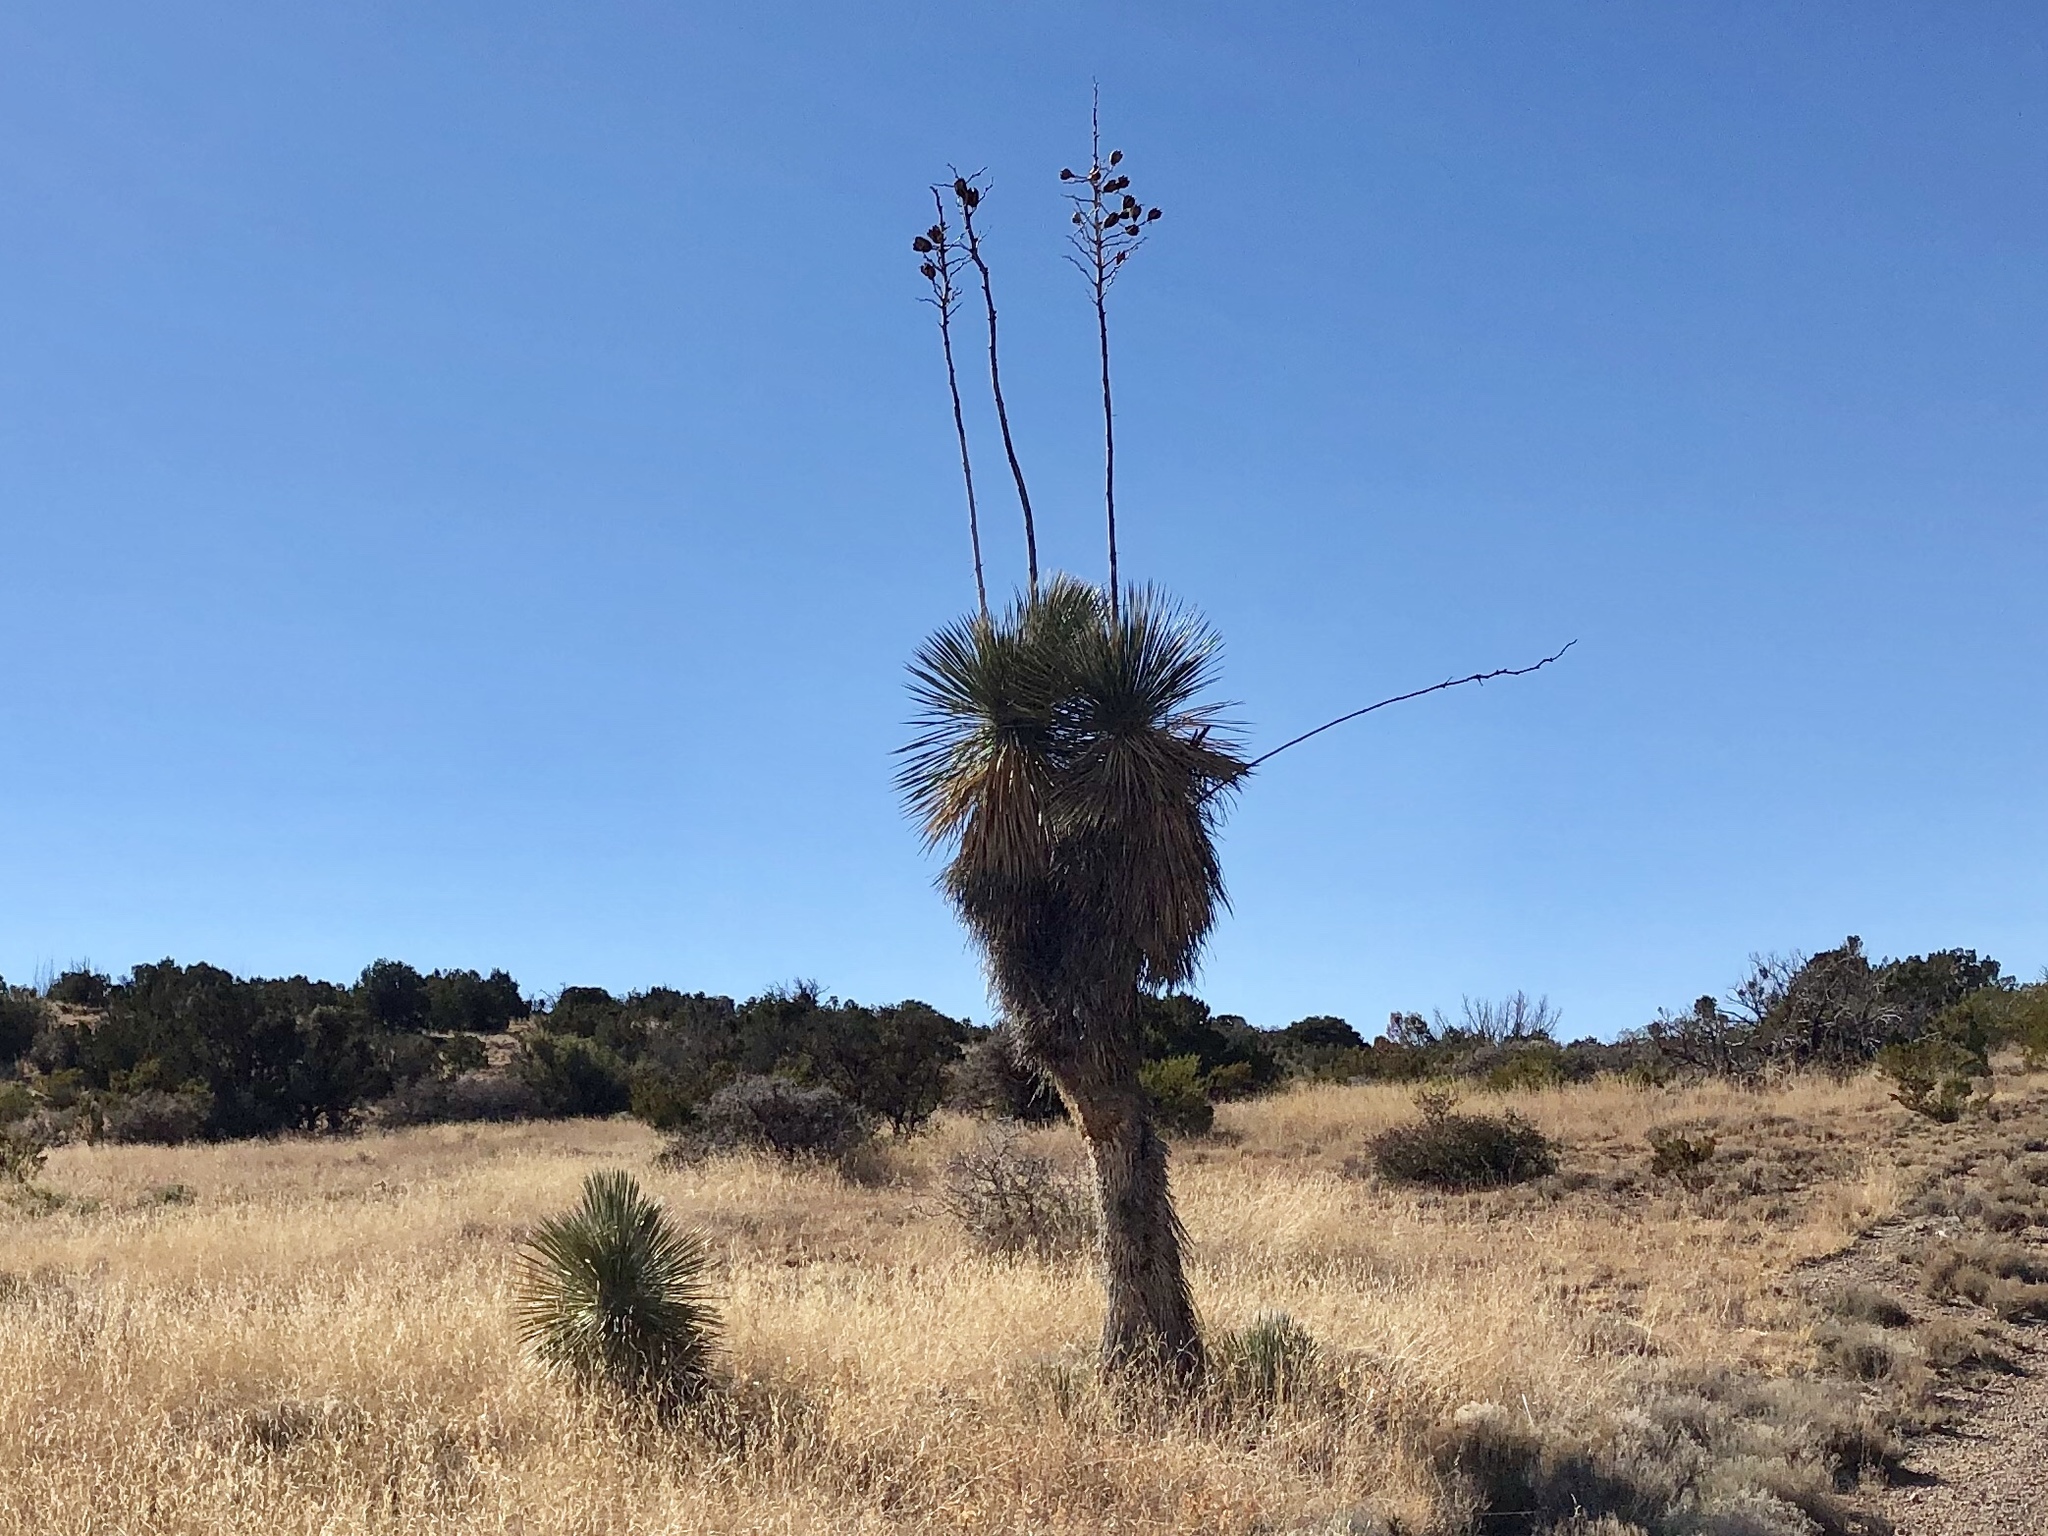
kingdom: Plantae
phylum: Tracheophyta
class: Liliopsida
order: Asparagales
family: Asparagaceae
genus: Yucca
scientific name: Yucca elata
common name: Palmella
